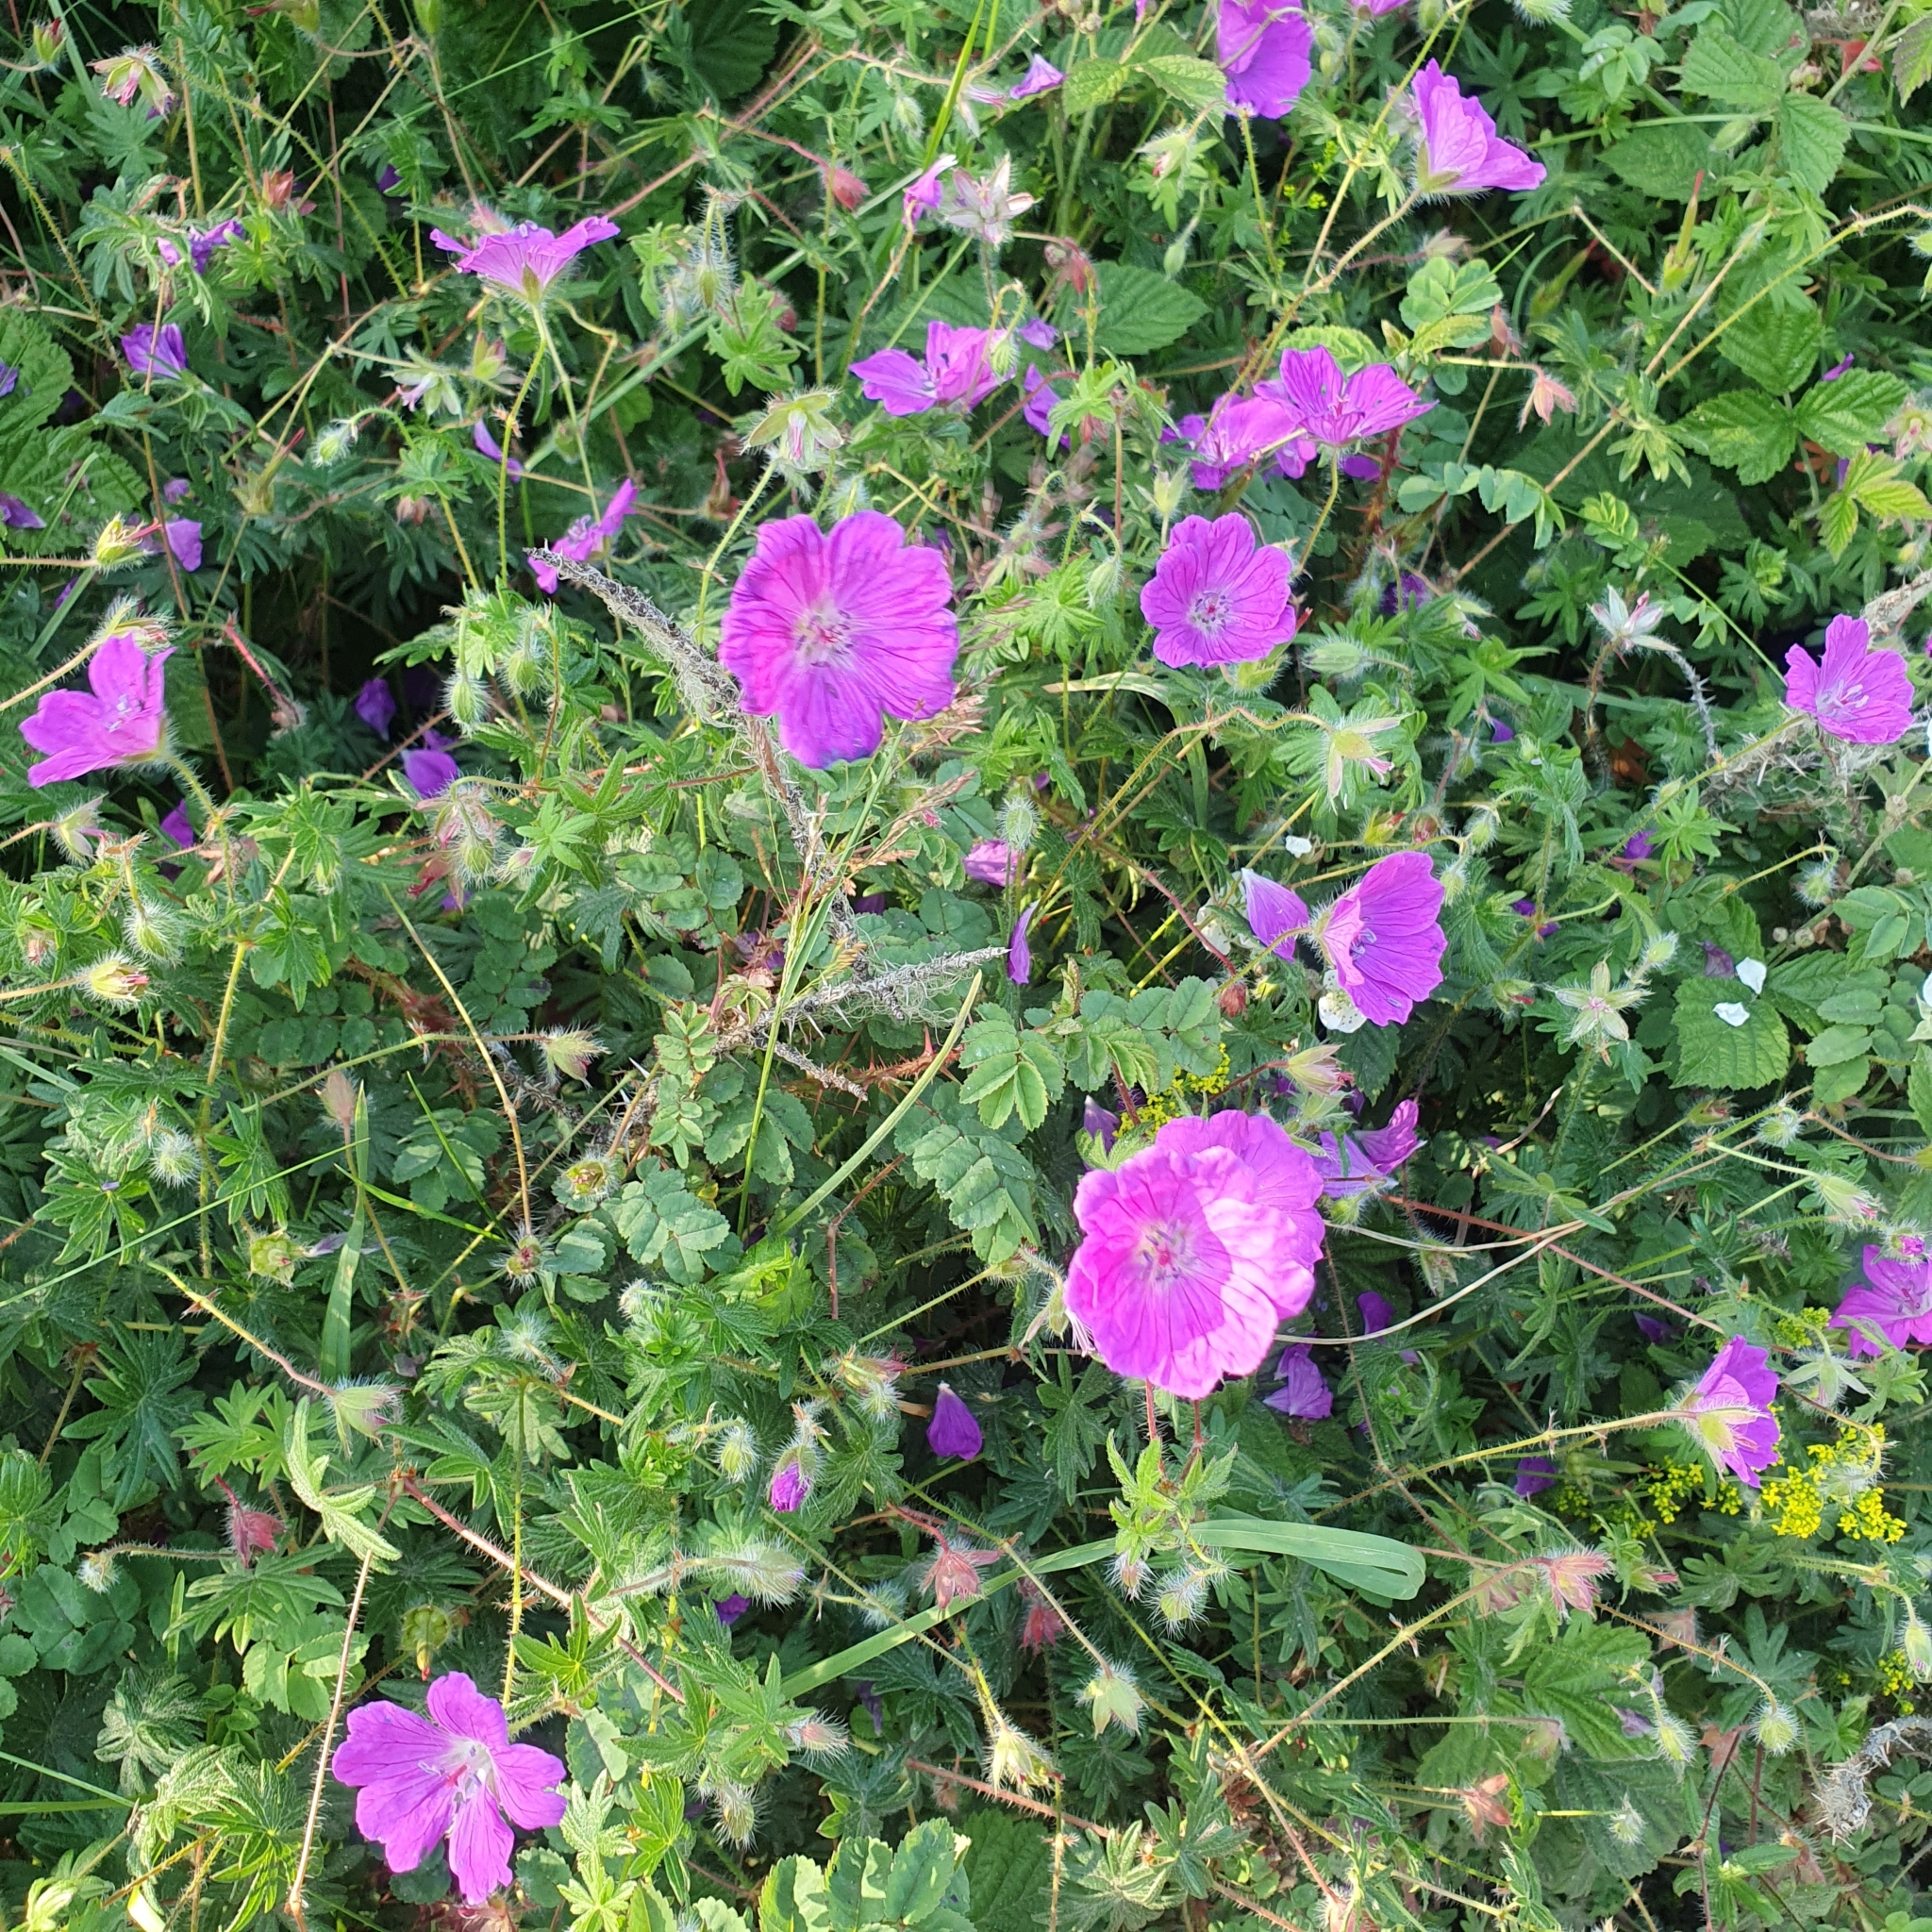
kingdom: Plantae
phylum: Tracheophyta
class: Magnoliopsida
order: Geraniales
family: Geraniaceae
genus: Geranium
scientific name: Geranium sanguineum
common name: Bloody crane's-bill
